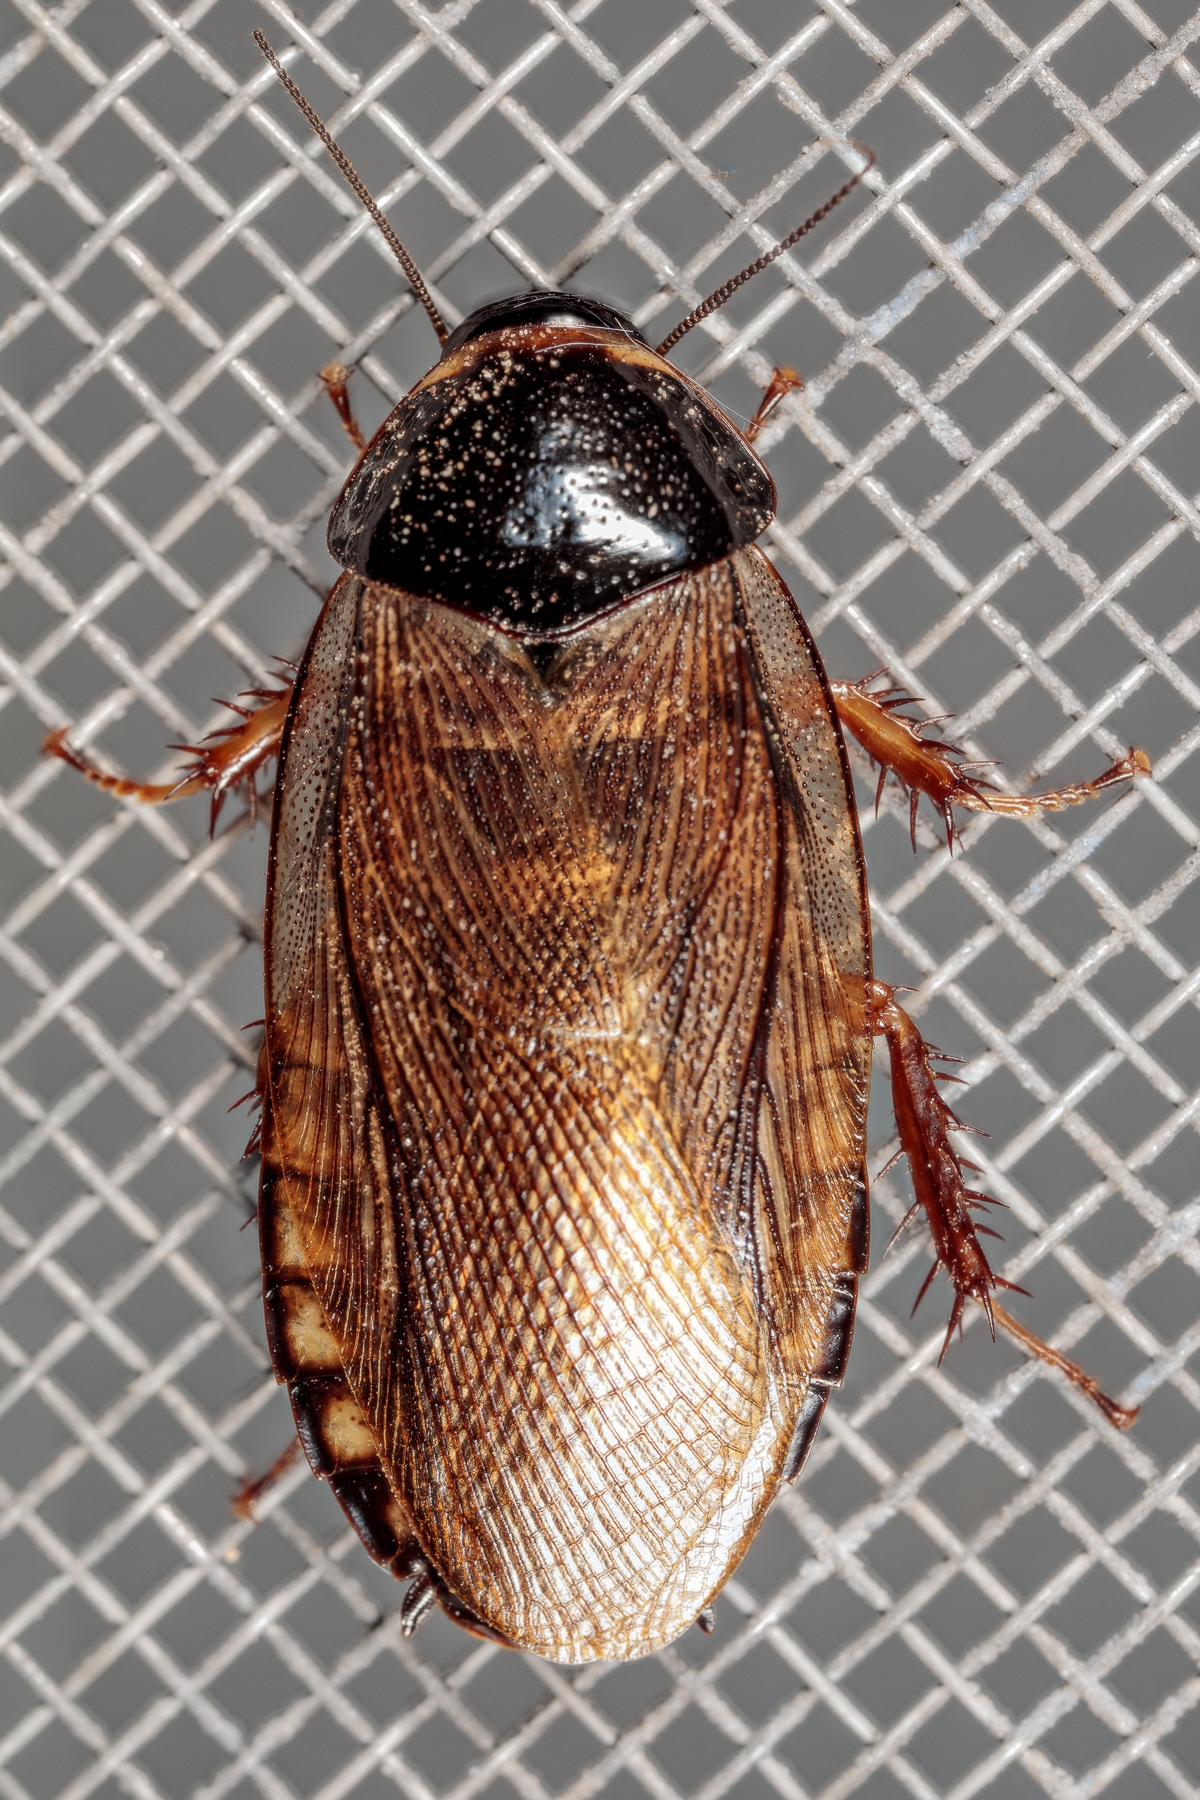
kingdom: Animalia
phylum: Arthropoda
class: Insecta
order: Blattodea
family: Blaberidae
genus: Pycnoscelus
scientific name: Pycnoscelus surinamensis
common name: Surinam cockroach
